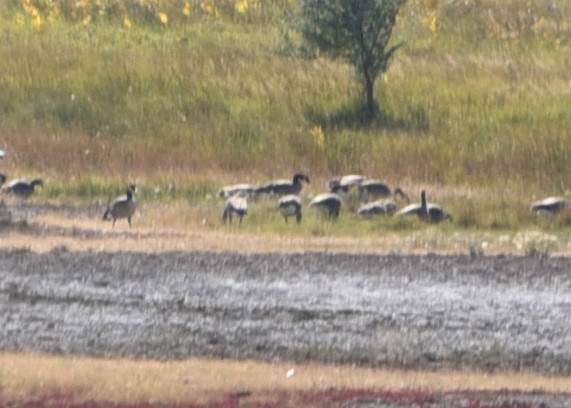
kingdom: Animalia
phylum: Chordata
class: Aves
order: Anseriformes
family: Anatidae
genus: Branta
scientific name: Branta canadensis
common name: Canada goose
